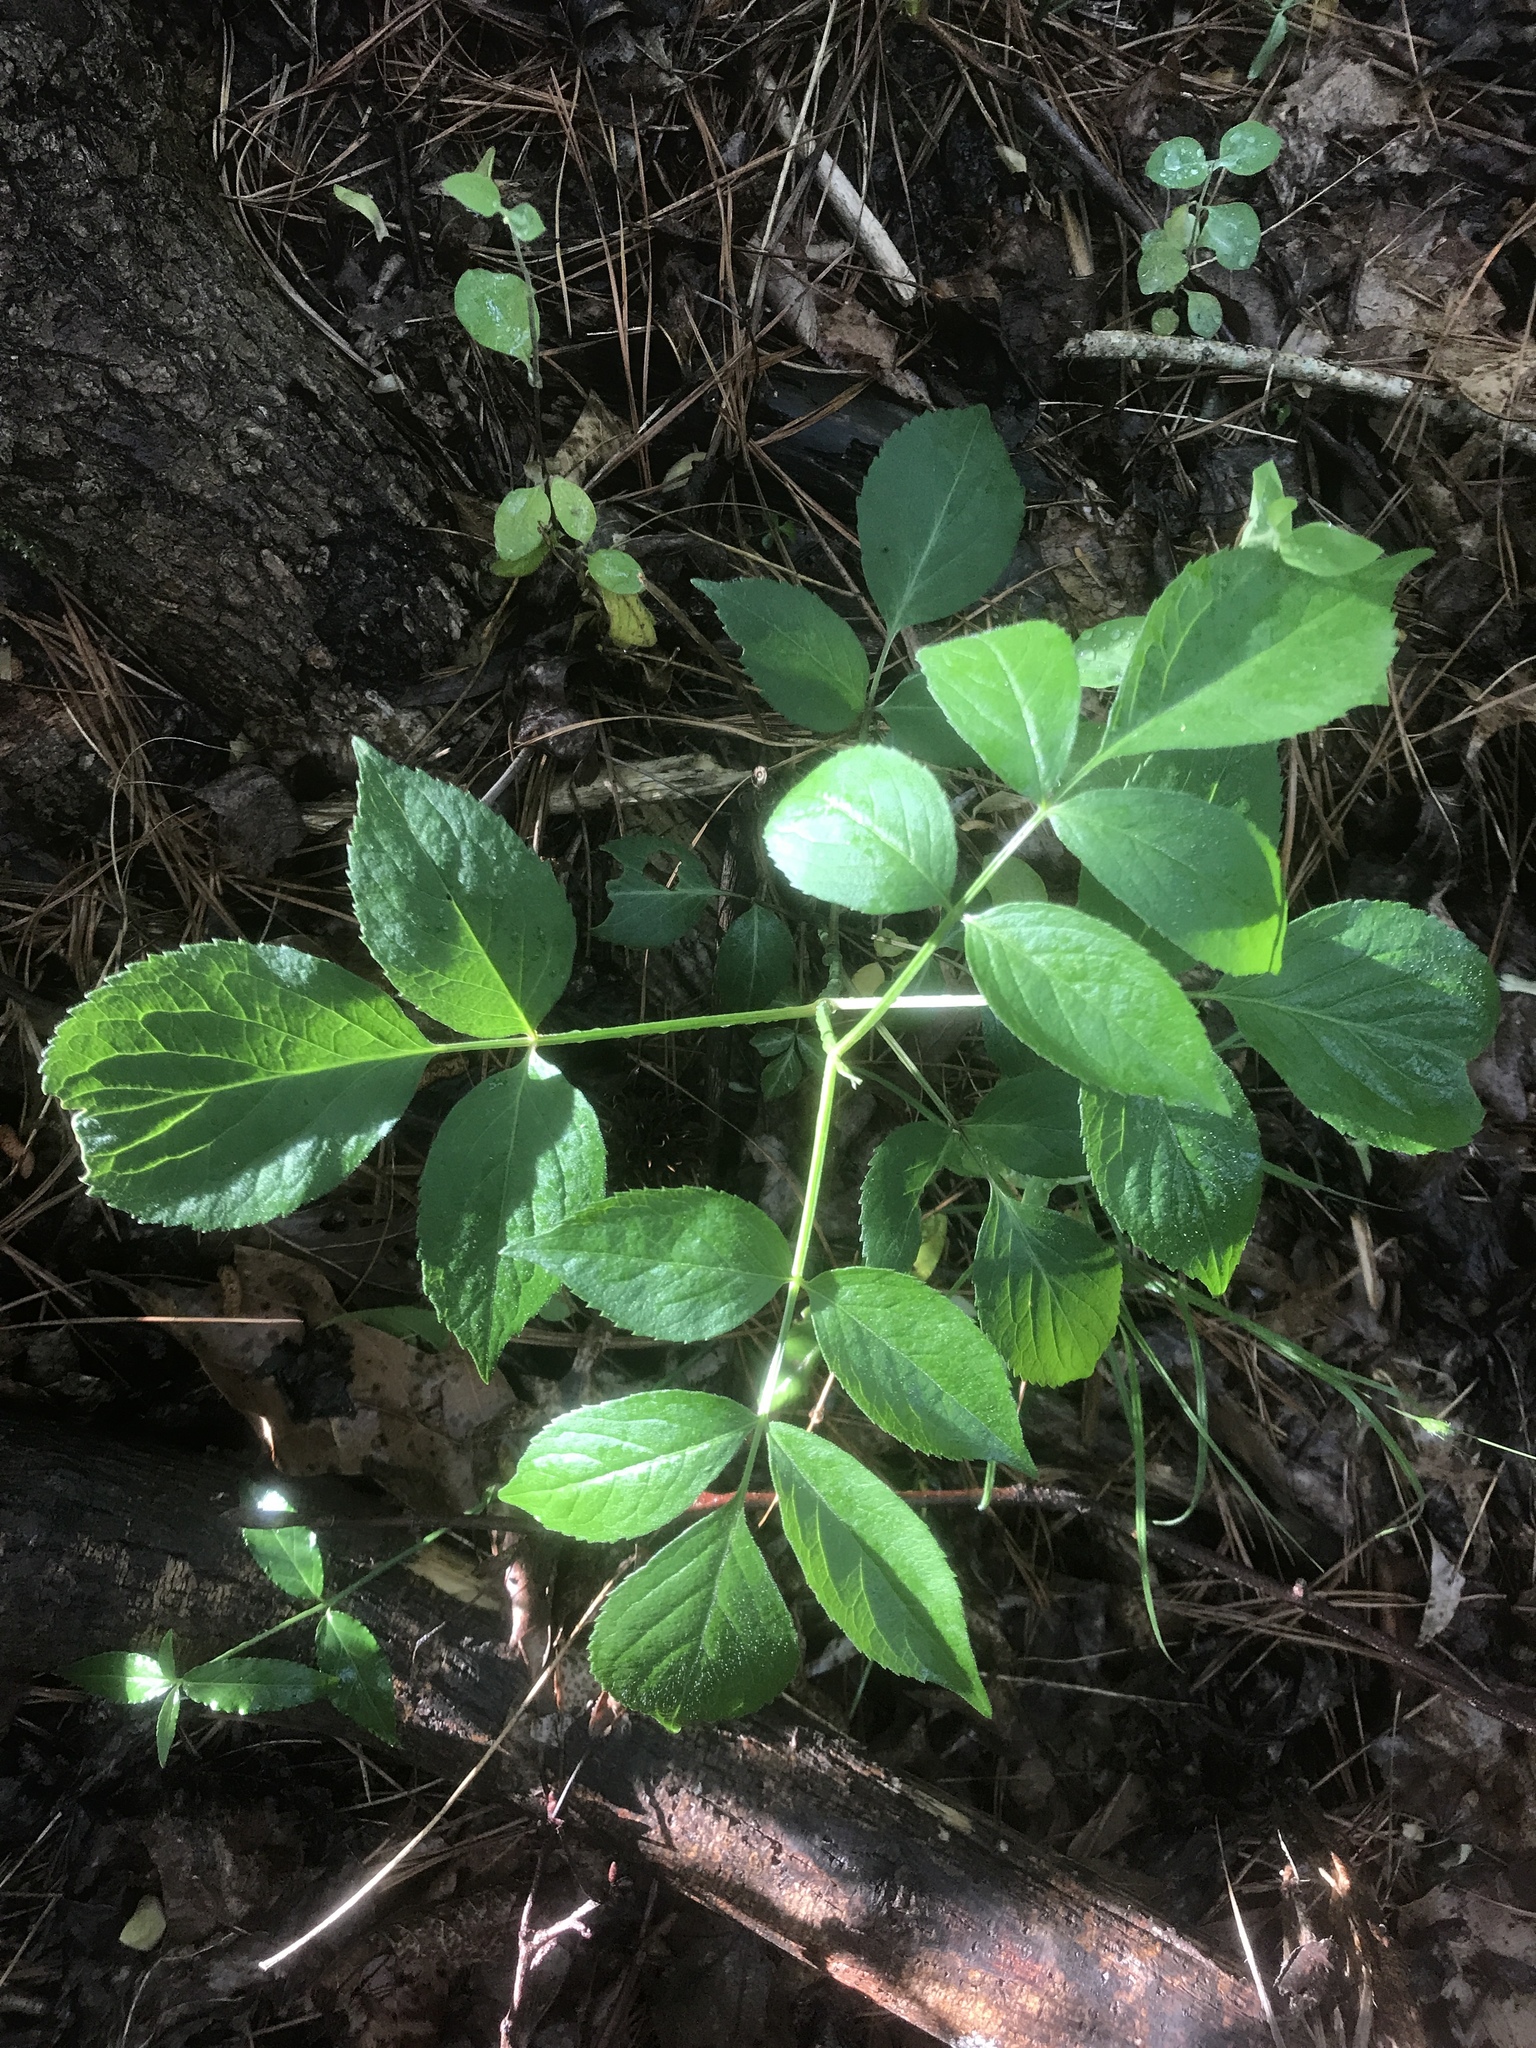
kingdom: Plantae
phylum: Tracheophyta
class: Magnoliopsida
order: Dipsacales
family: Viburnaceae
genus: Sambucus
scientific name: Sambucus canadensis
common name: American elder
